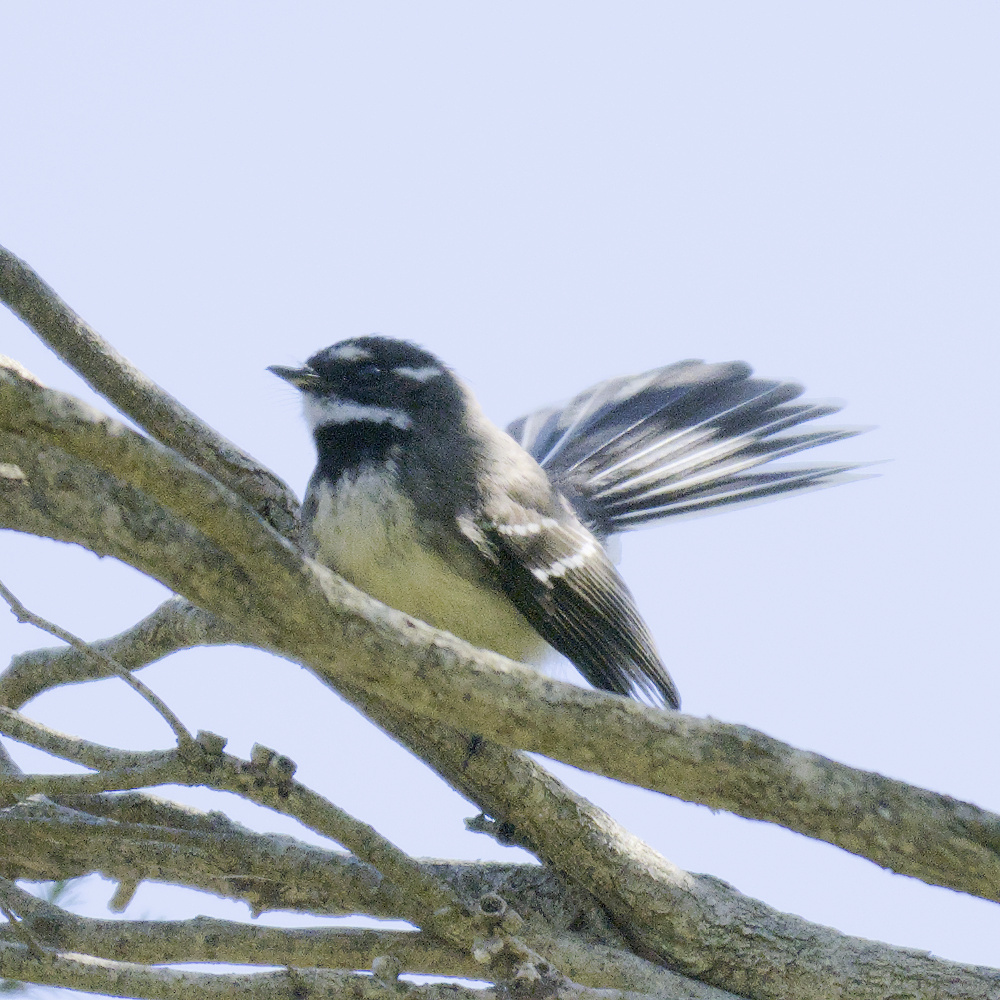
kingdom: Animalia
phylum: Chordata
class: Aves
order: Passeriformes
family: Rhipiduridae
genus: Rhipidura
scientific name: Rhipidura albiscapa
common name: Grey fantail
